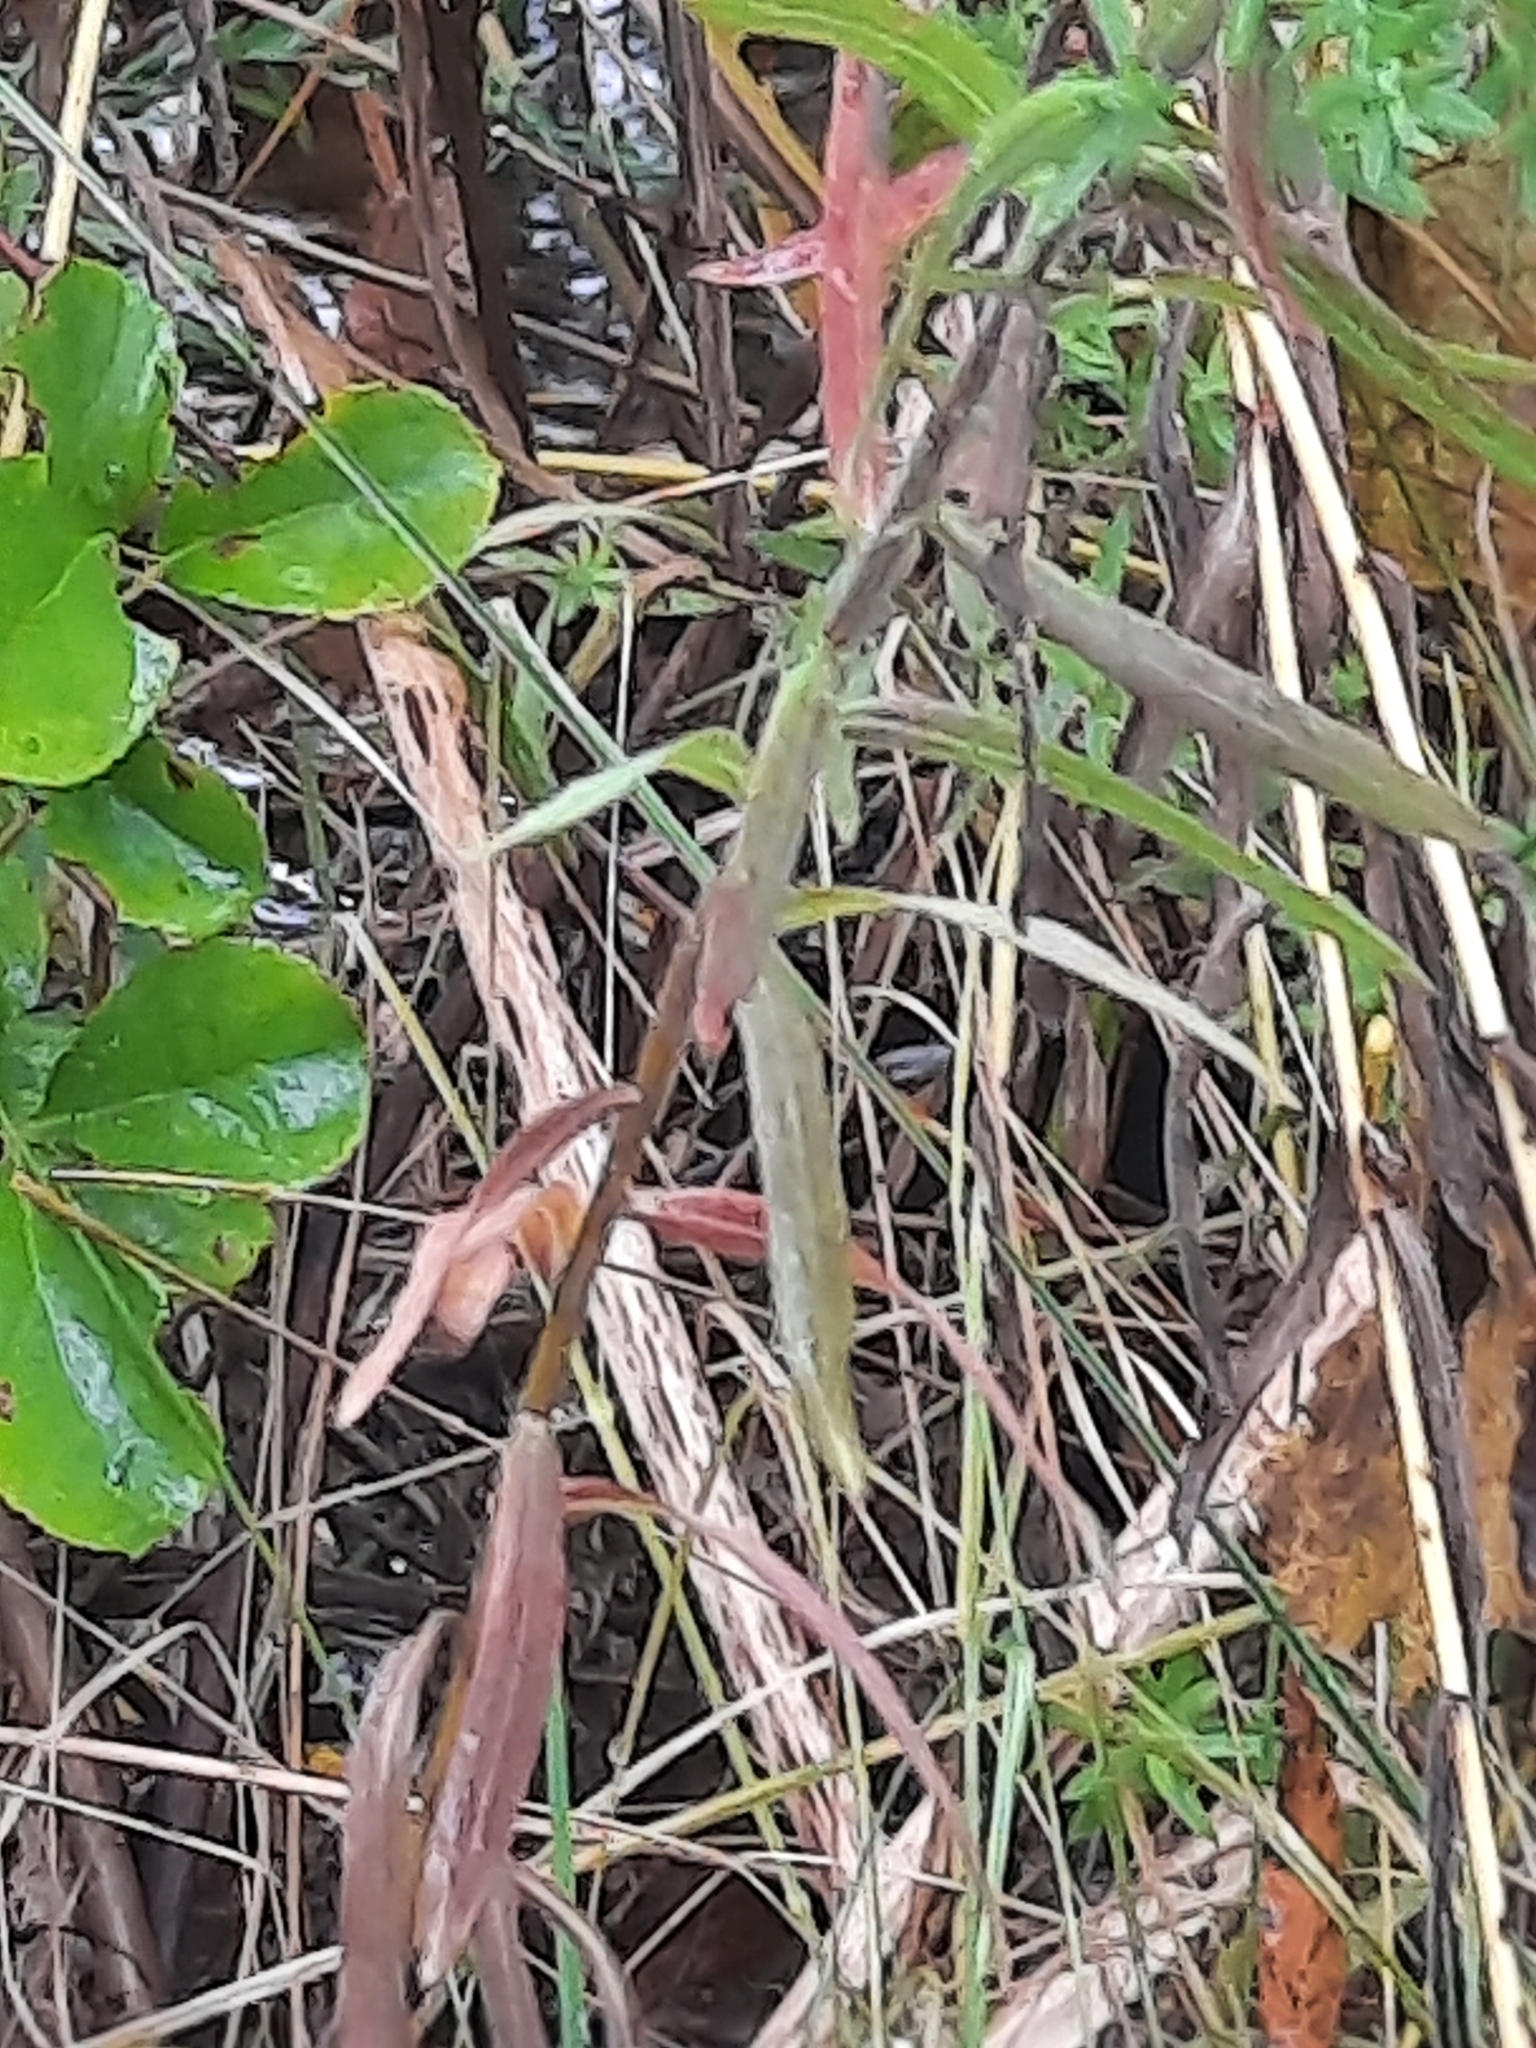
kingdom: Plantae
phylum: Tracheophyta
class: Magnoliopsida
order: Asterales
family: Asteraceae
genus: Symphyotrichum
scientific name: Symphyotrichum ericoides
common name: Heath aster
